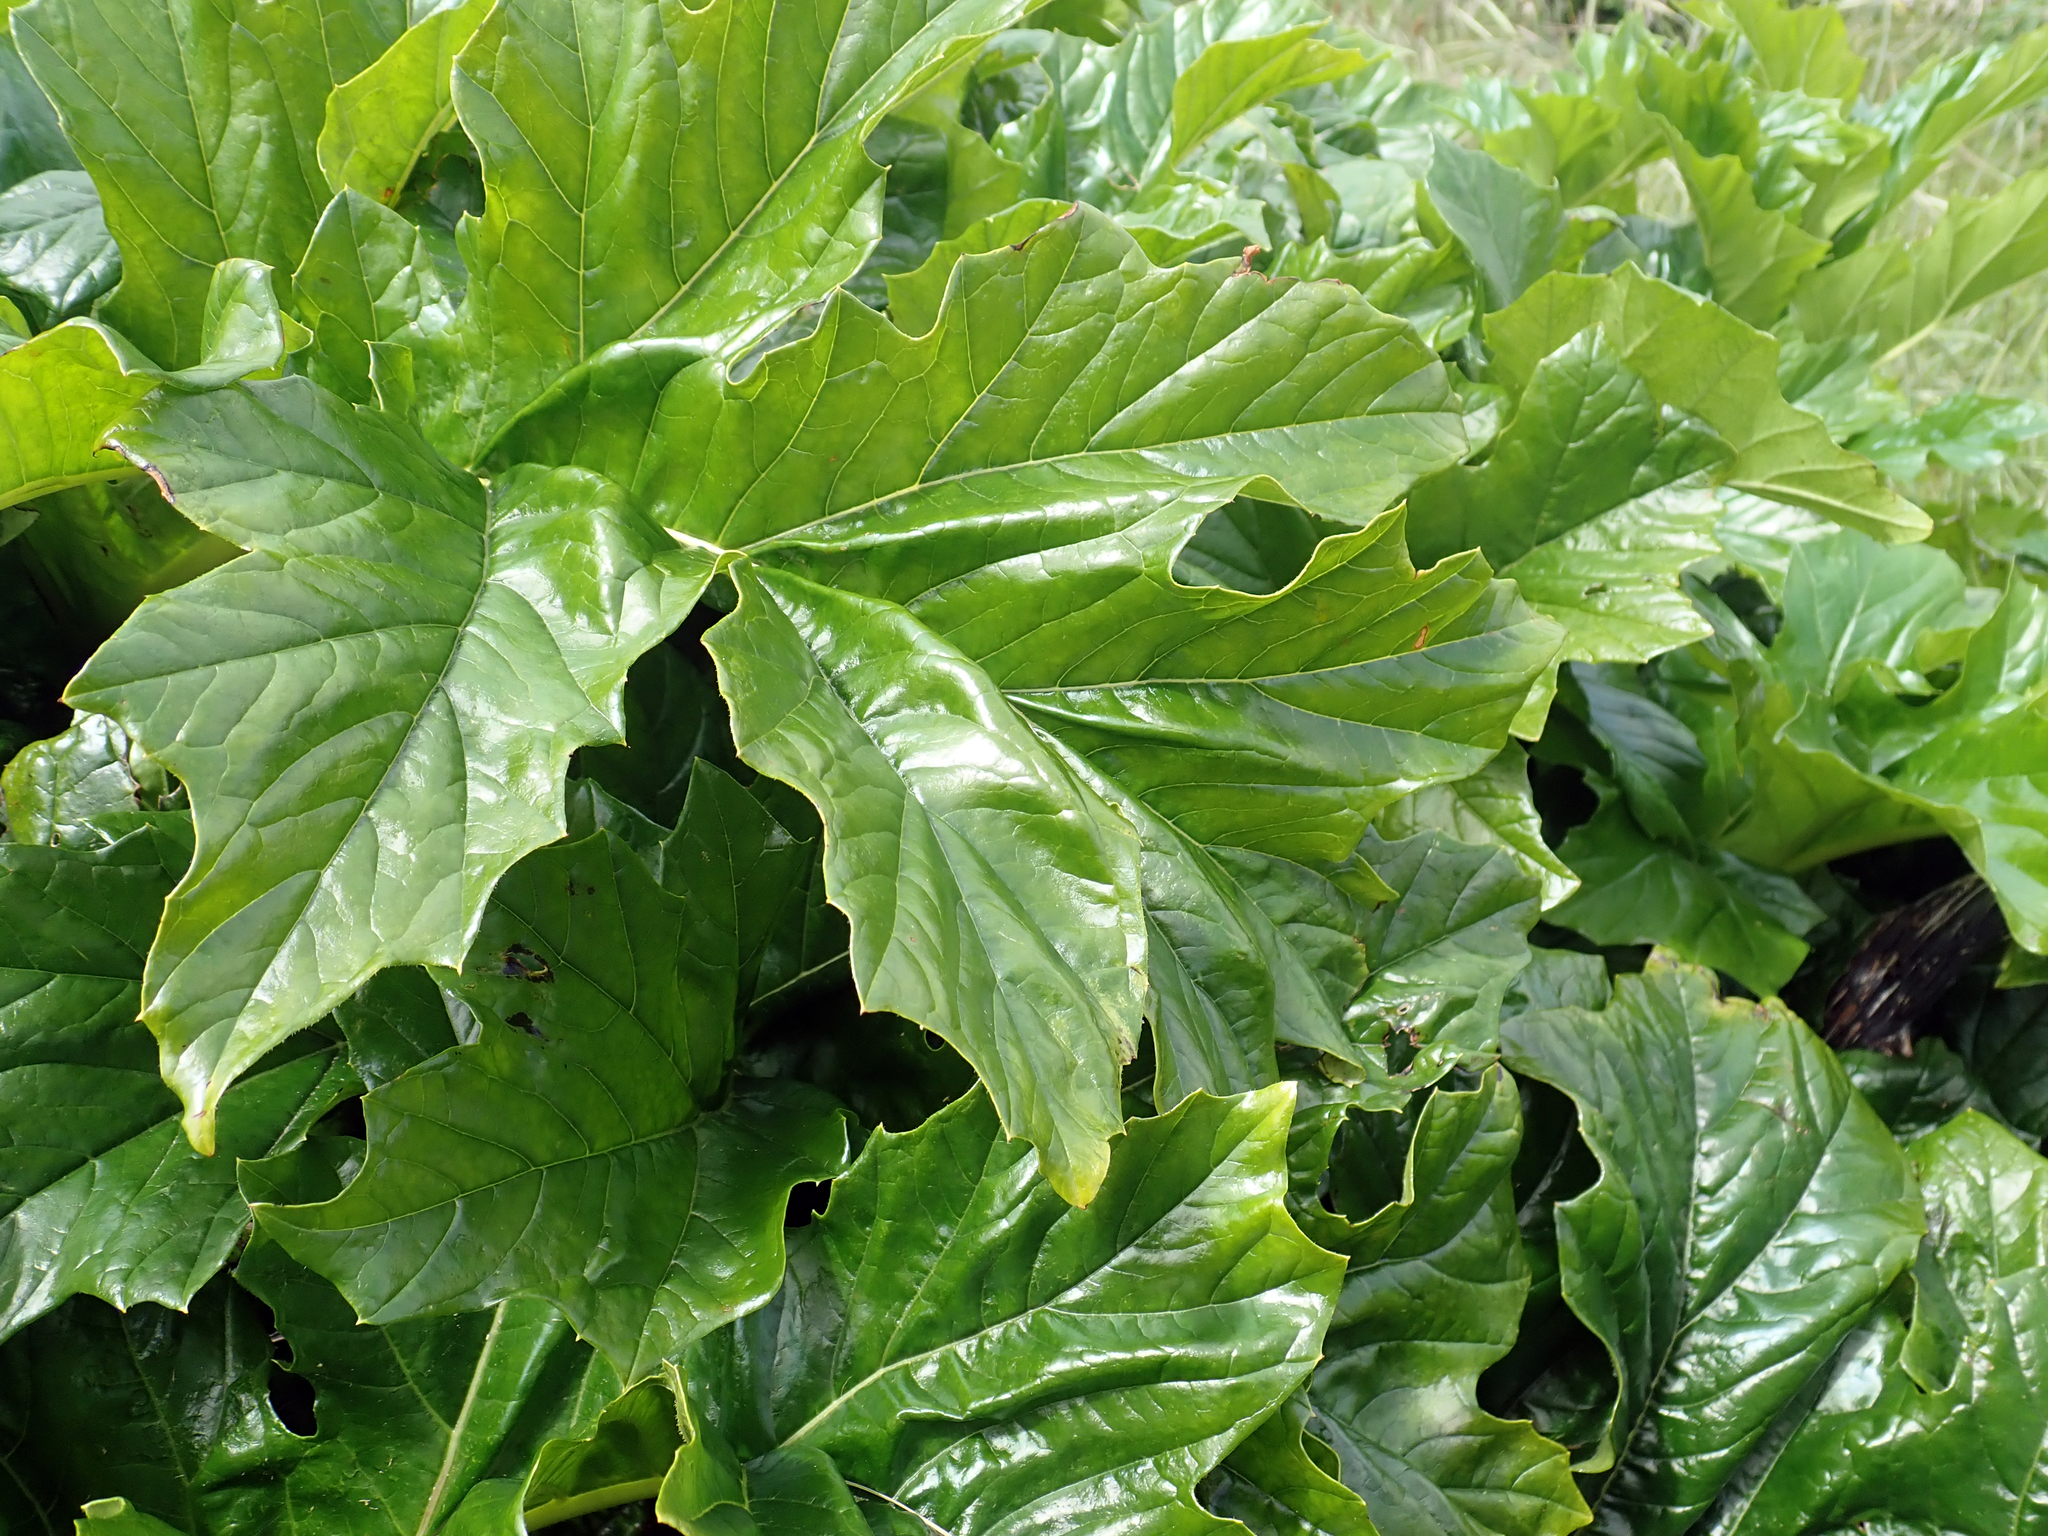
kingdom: Plantae
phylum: Tracheophyta
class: Magnoliopsida
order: Lamiales
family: Acanthaceae
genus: Acanthus
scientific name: Acanthus mollis
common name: Bear's-breech
